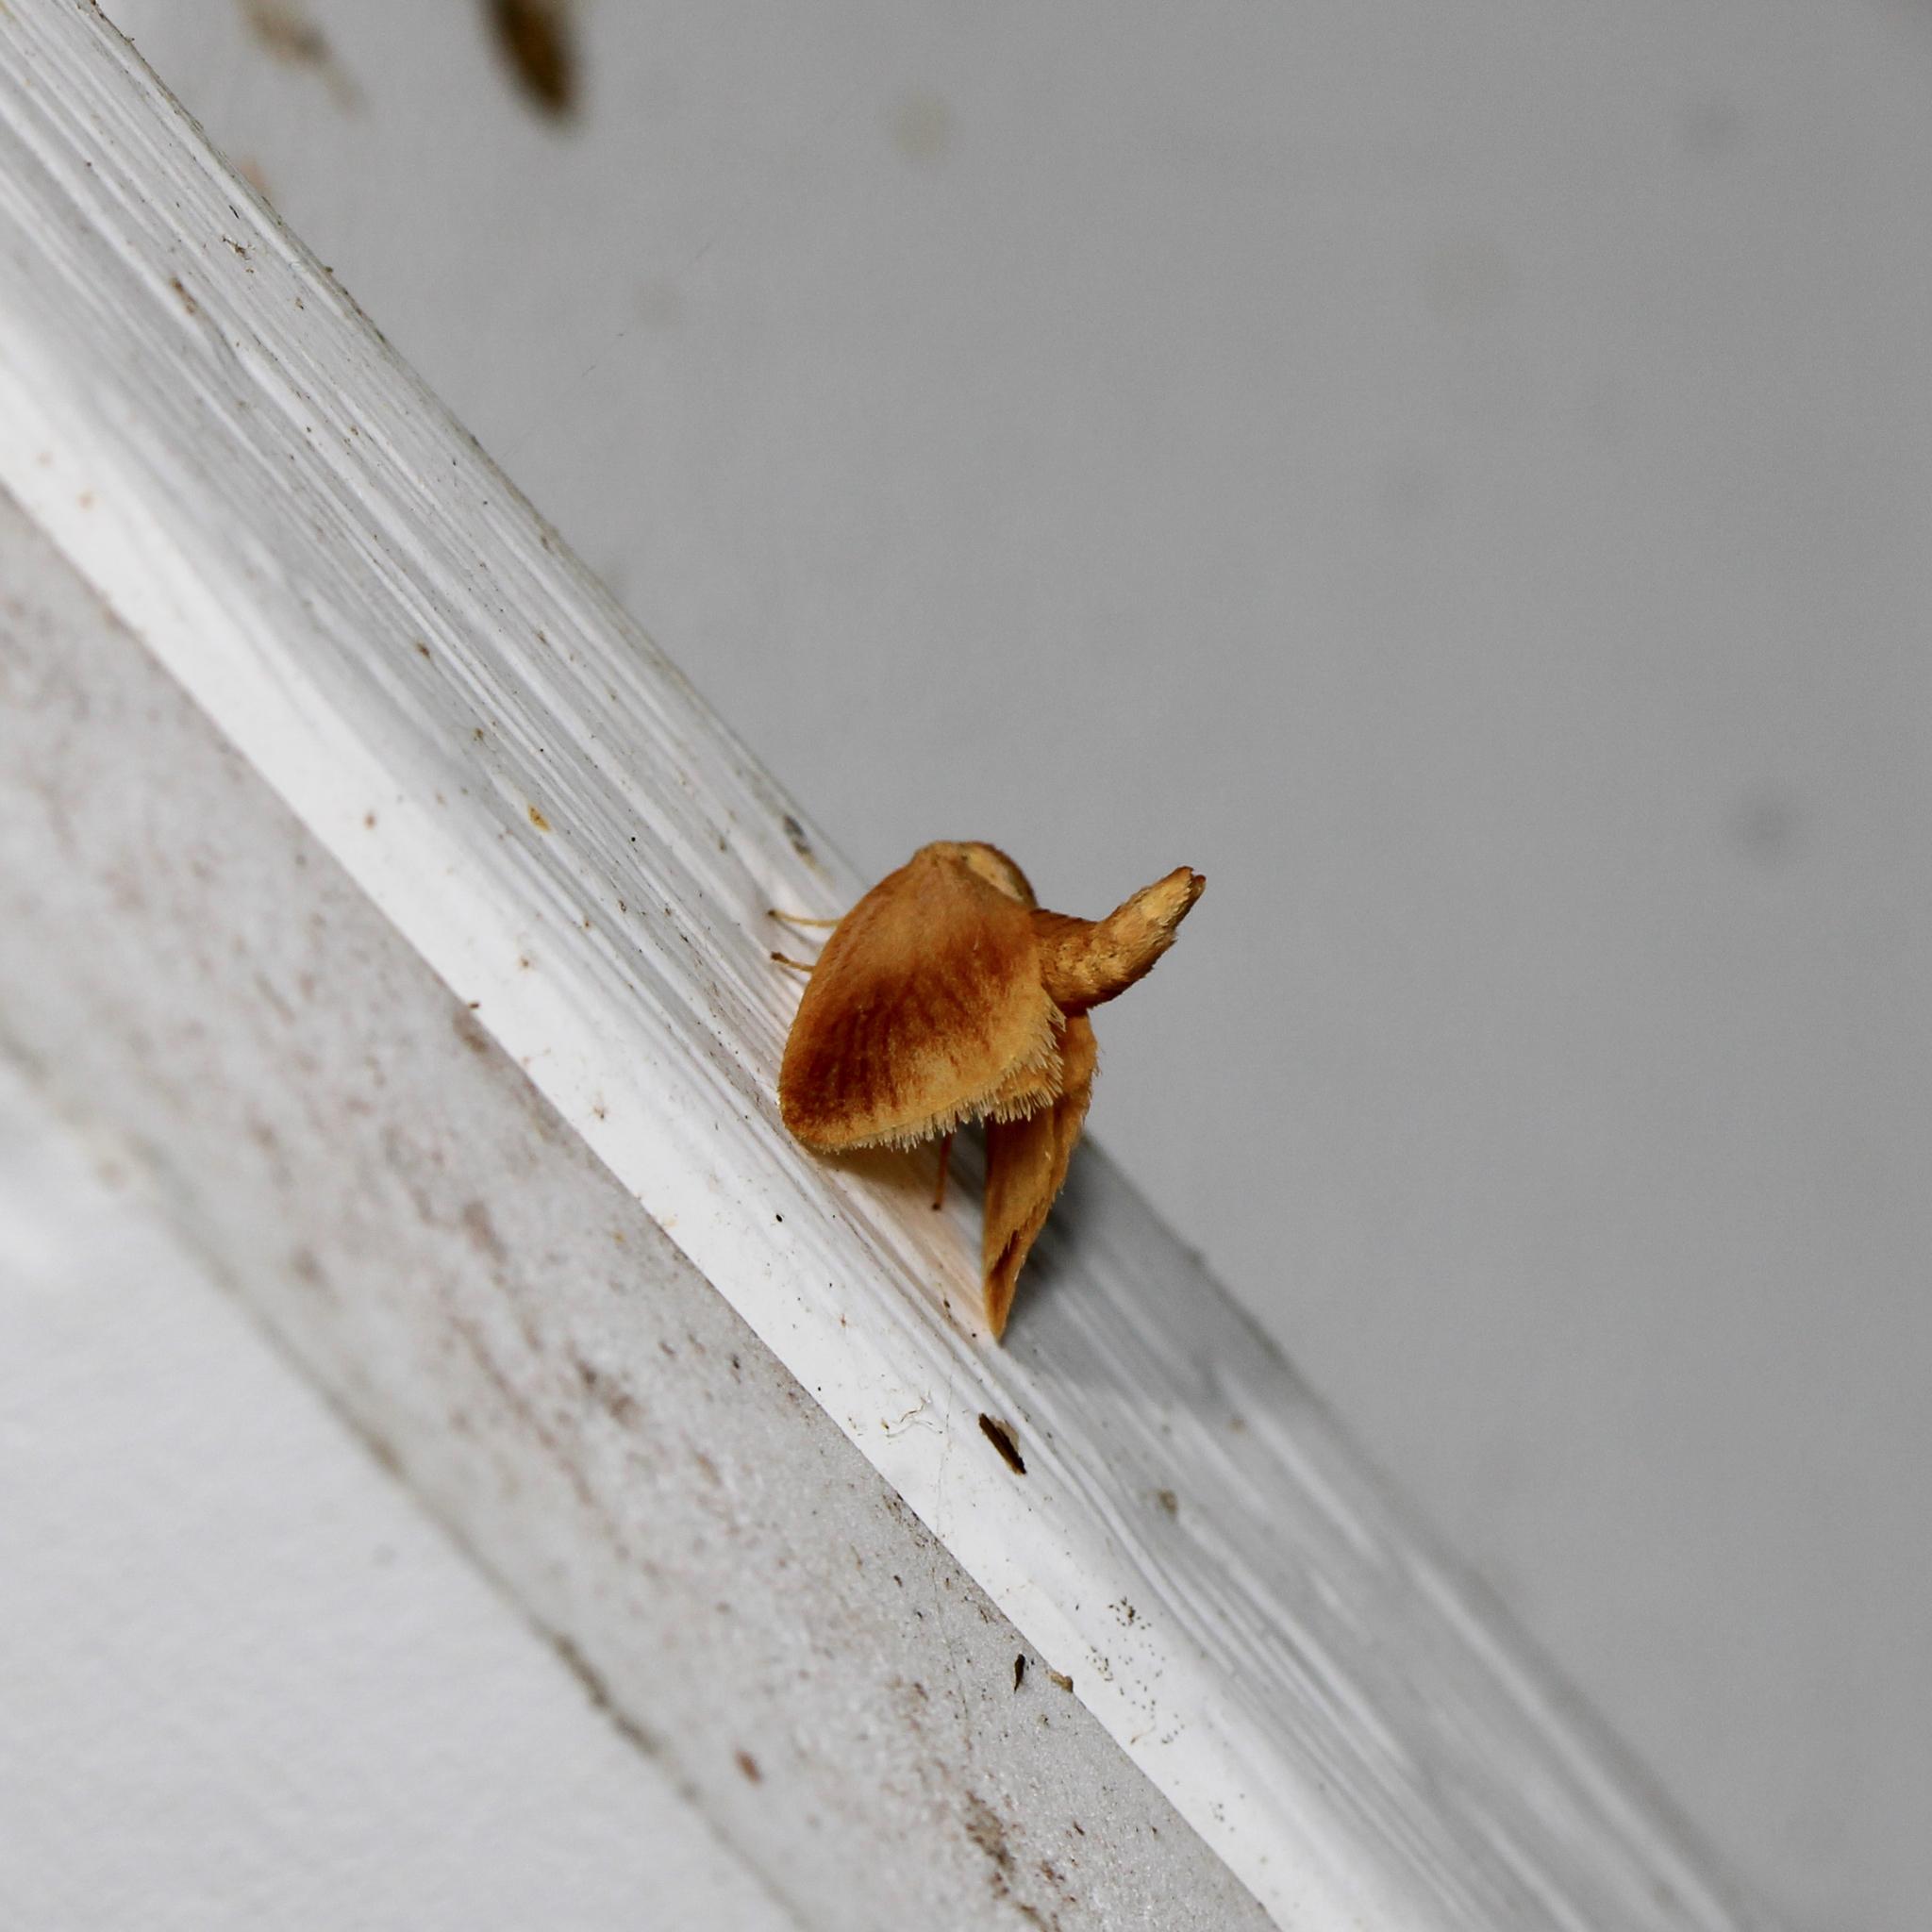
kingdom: Animalia
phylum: Arthropoda
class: Insecta
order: Lepidoptera
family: Limacodidae
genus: Tortricidia
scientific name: Tortricidia testacea
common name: Early button slug moth
